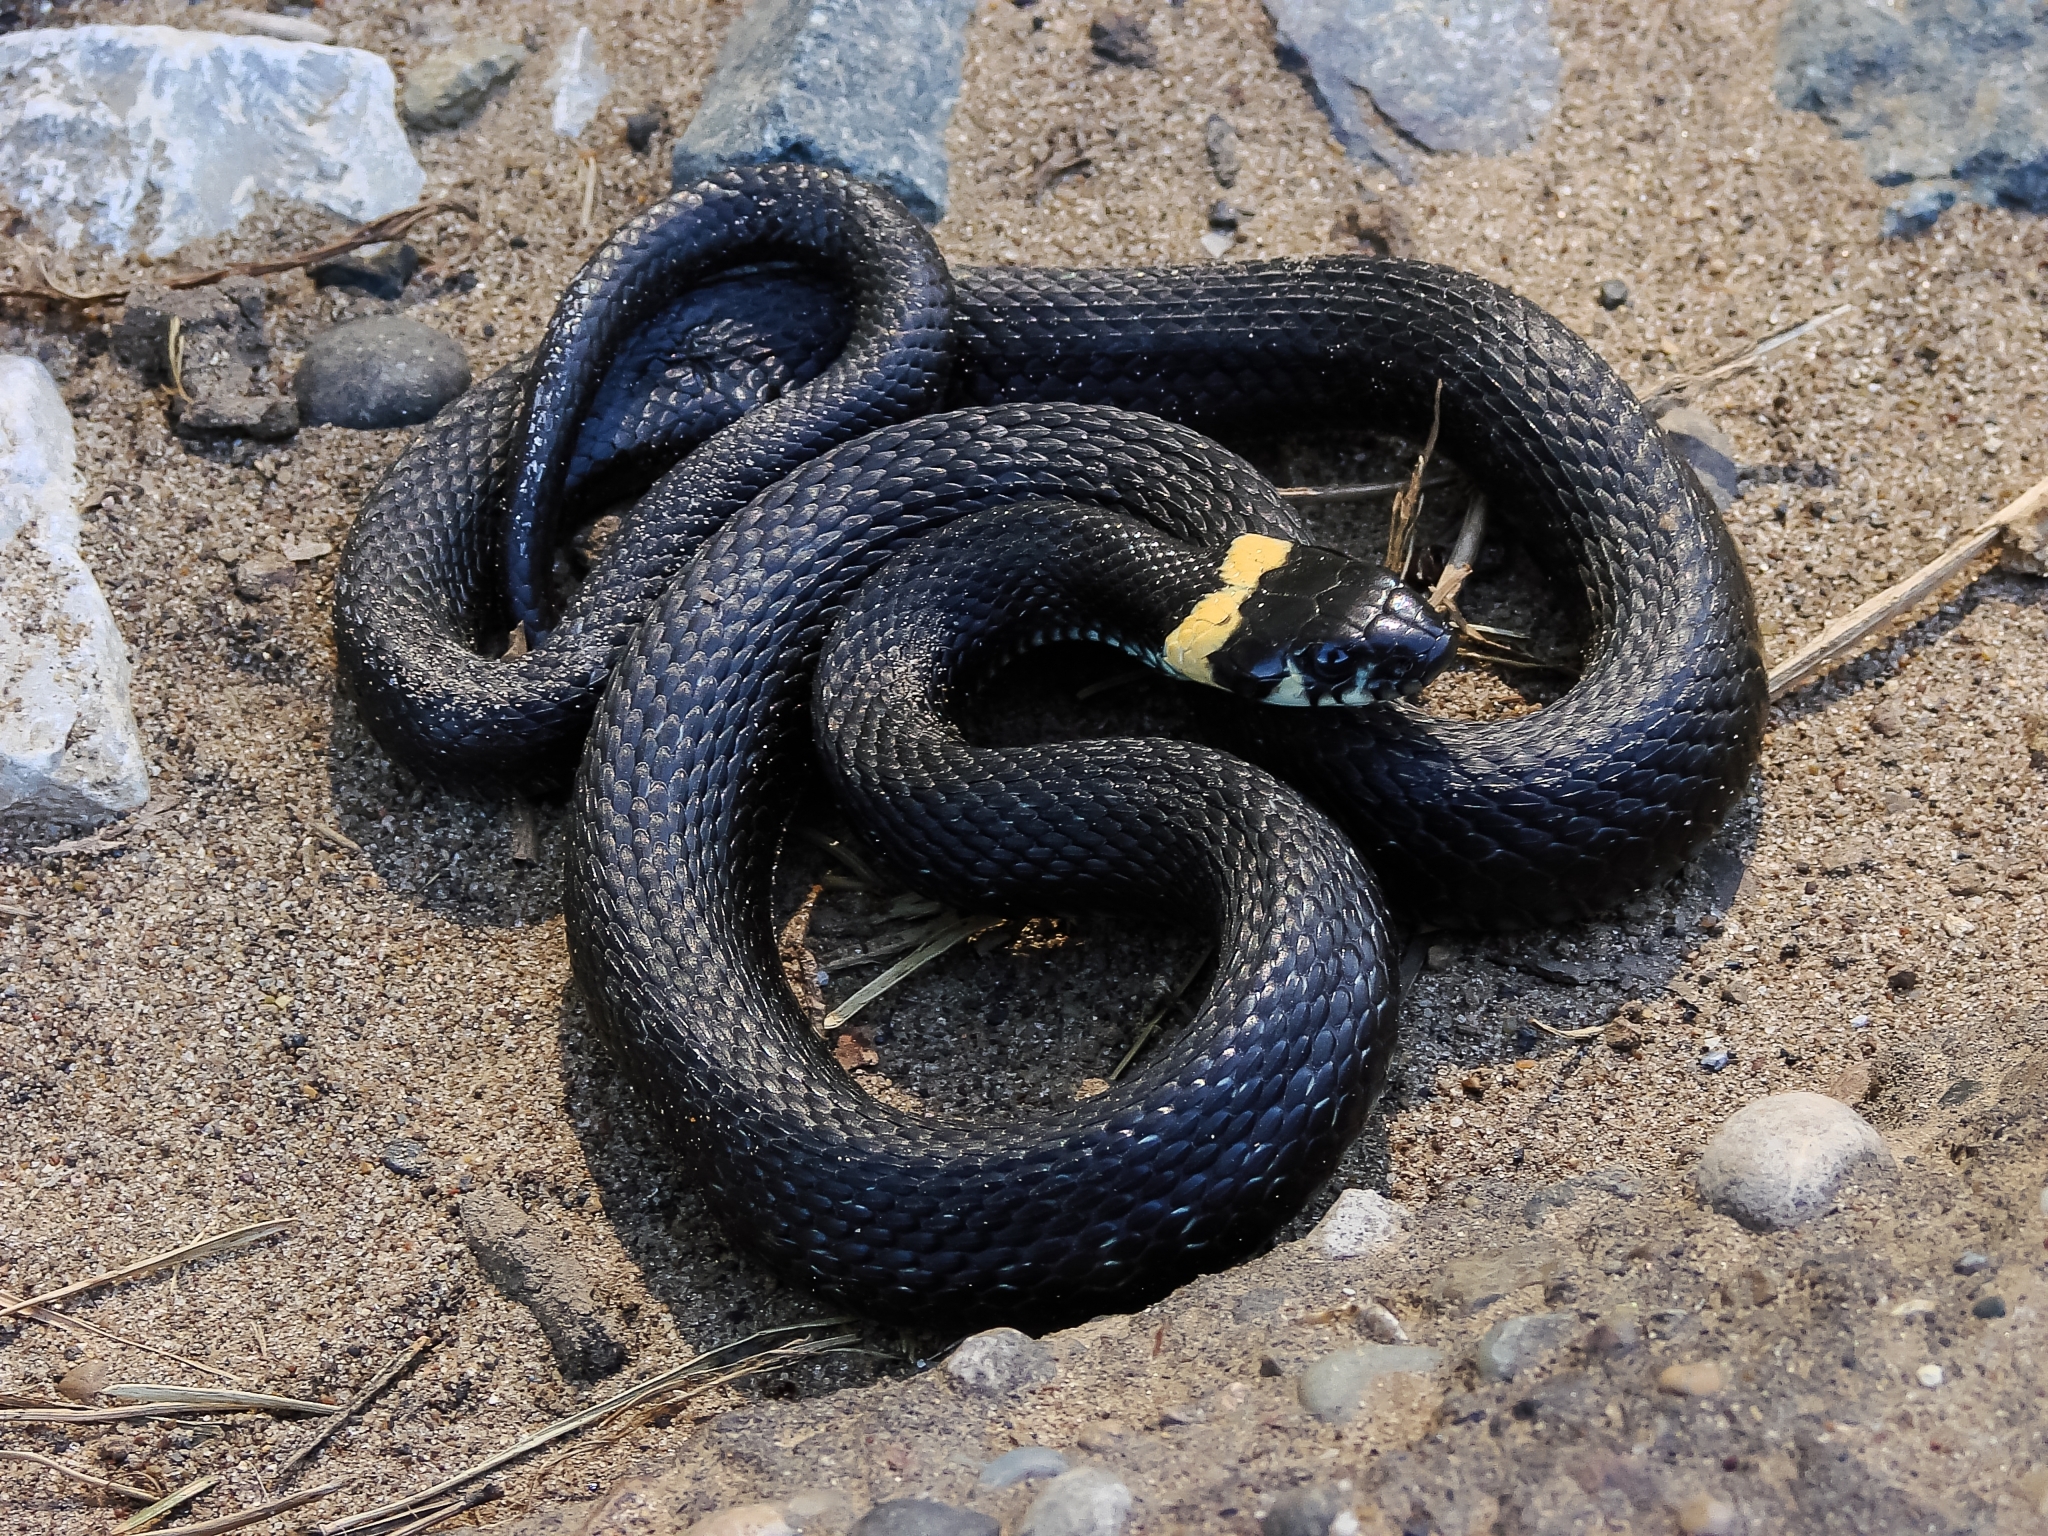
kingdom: Animalia
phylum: Chordata
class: Squamata
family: Colubridae
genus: Natrix
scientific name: Natrix natrix
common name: Grass snake
